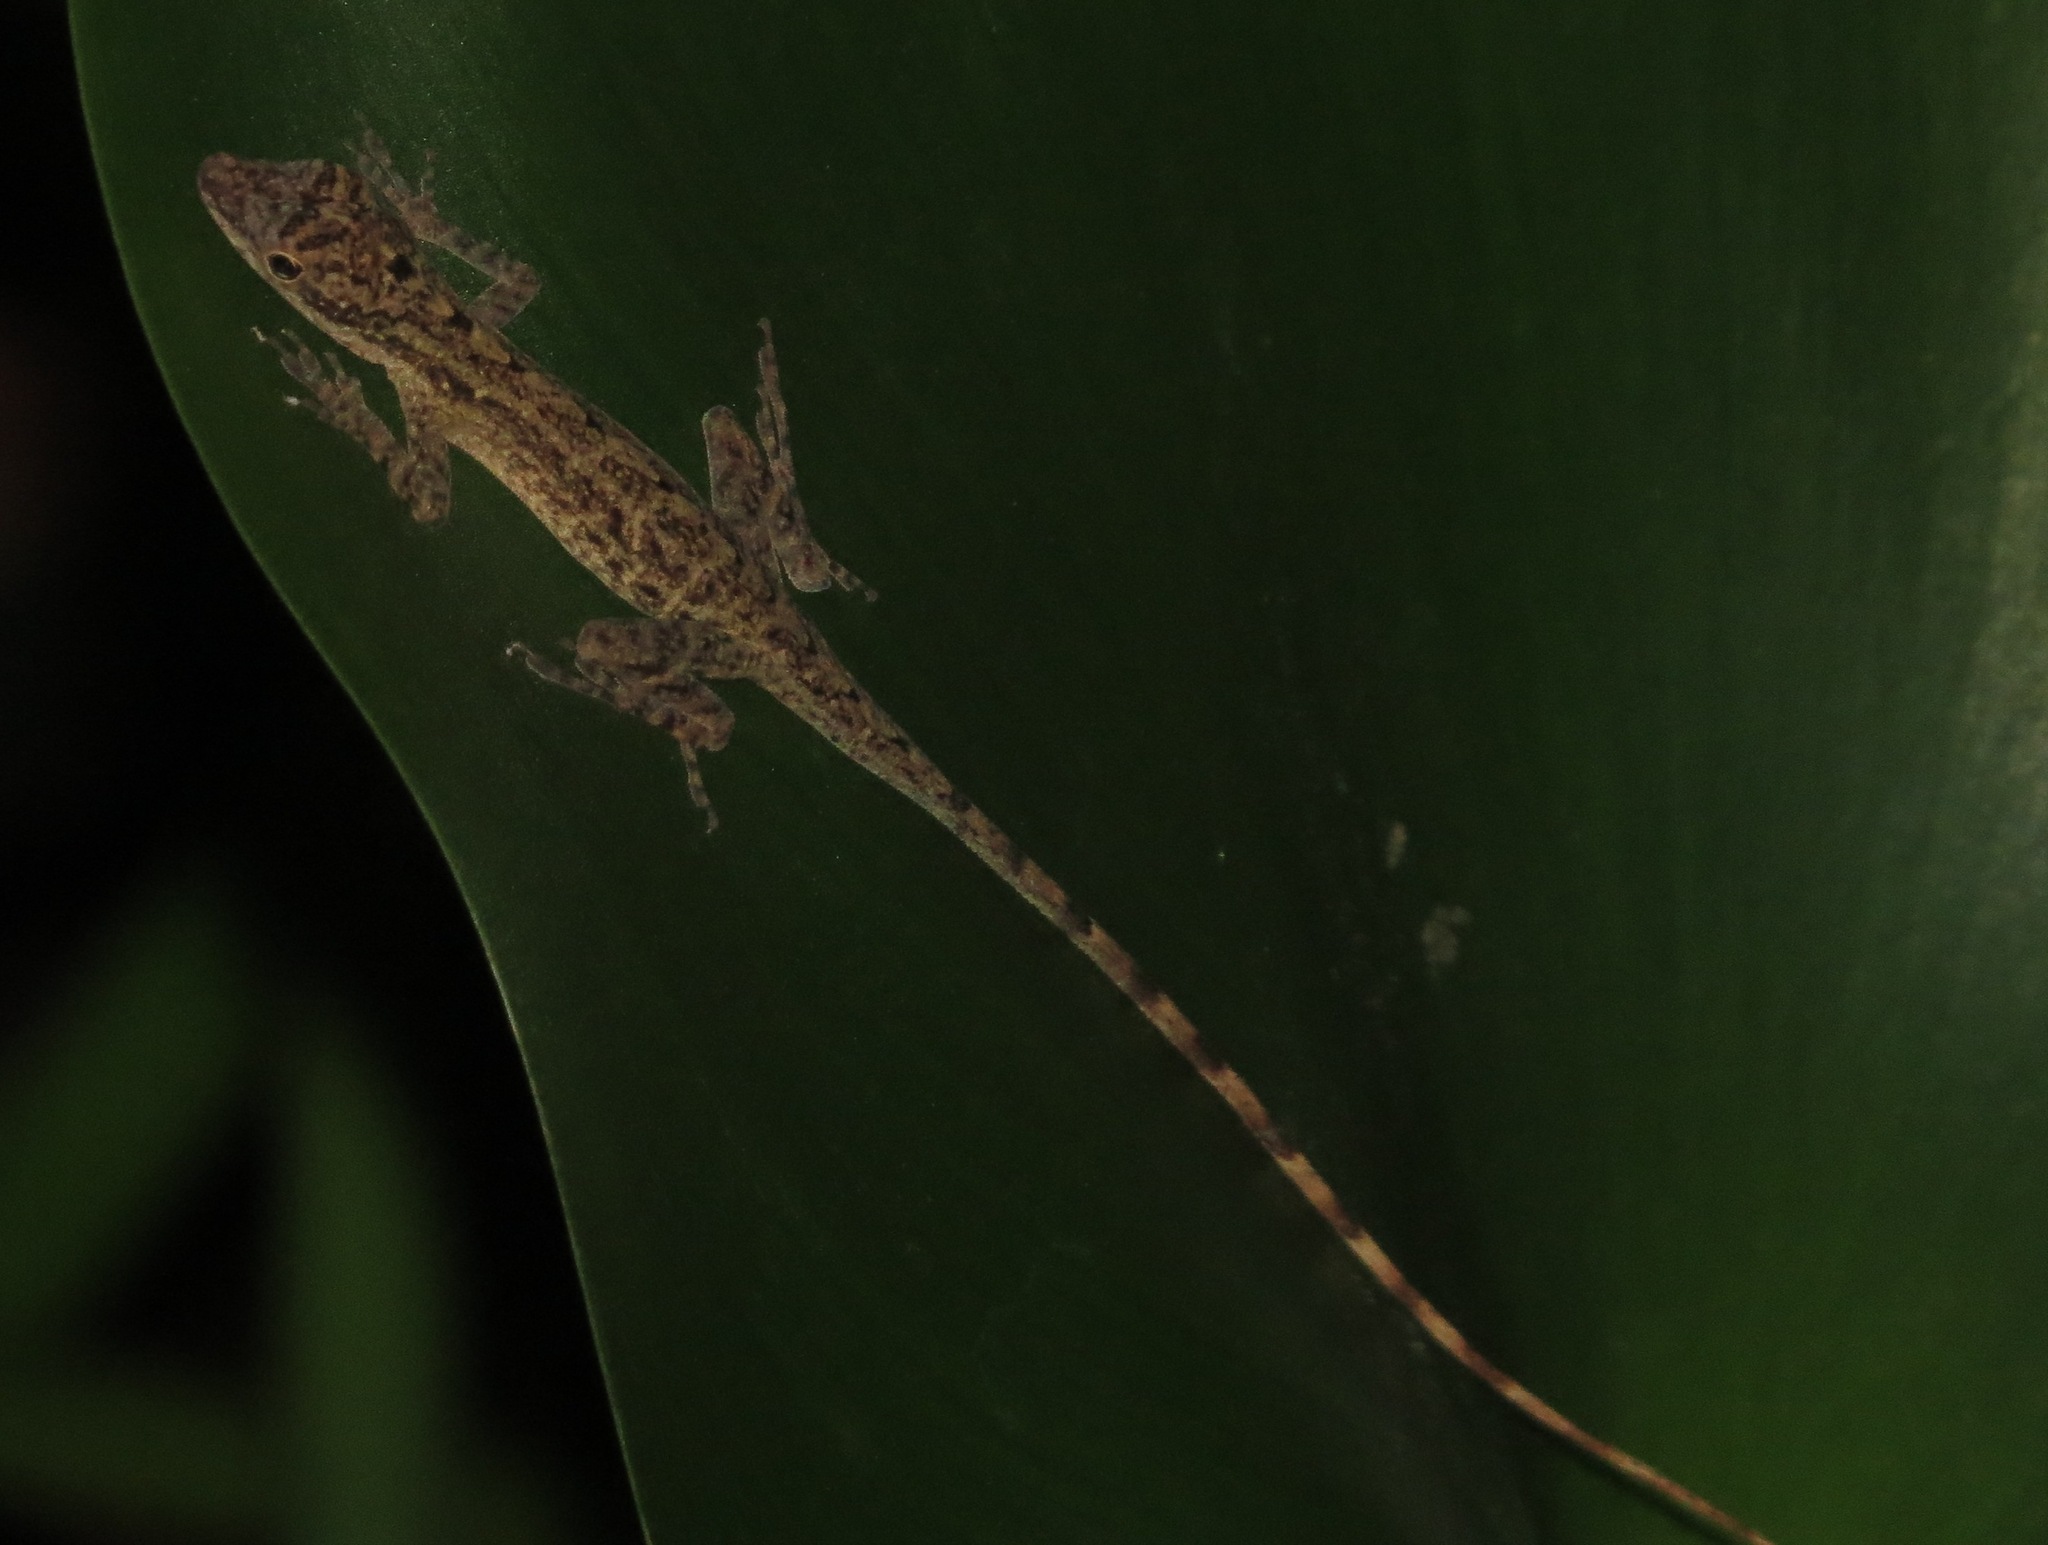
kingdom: Animalia
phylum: Chordata
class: Squamata
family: Dactyloidae
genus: Anolis
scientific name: Anolis limifrons
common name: Border anole
